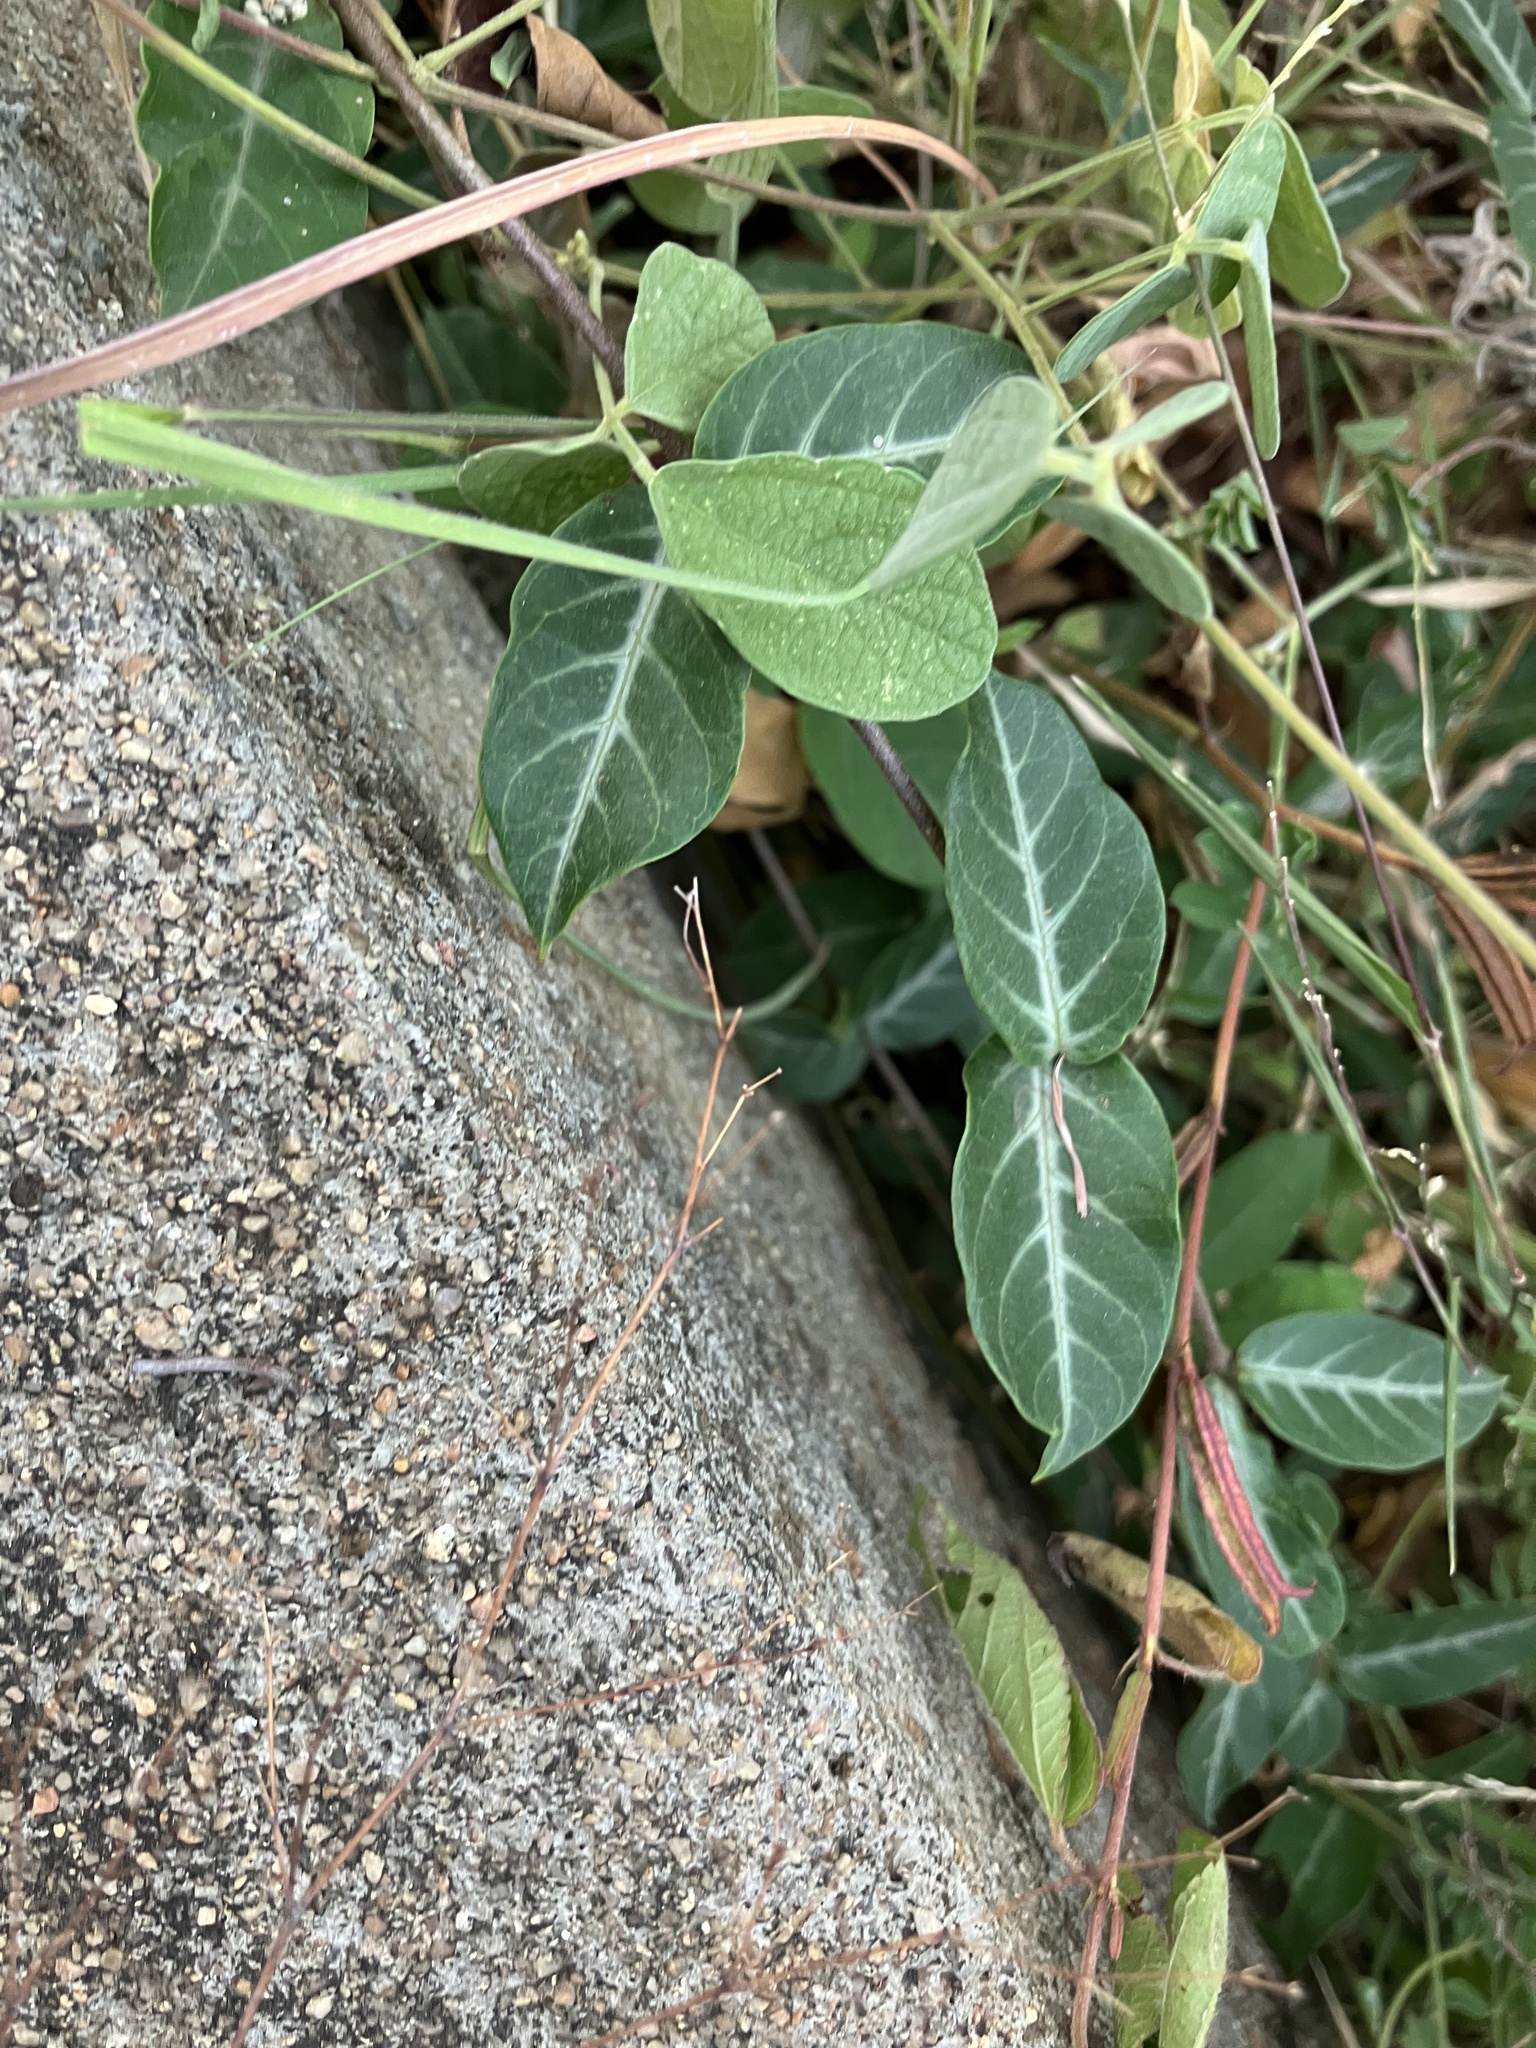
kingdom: Plantae
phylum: Tracheophyta
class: Magnoliopsida
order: Gentianales
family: Apocynaceae
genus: Hemidesmus
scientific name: Hemidesmus indicus
